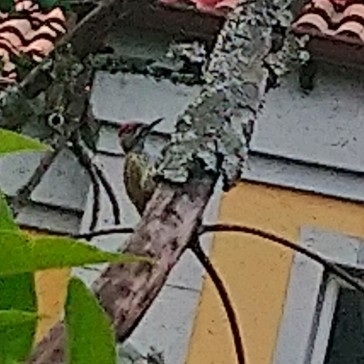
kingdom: Animalia
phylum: Chordata
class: Aves
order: Piciformes
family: Picidae
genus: Campethera
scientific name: Campethera abingoni
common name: Golden-tailed woodpecker
